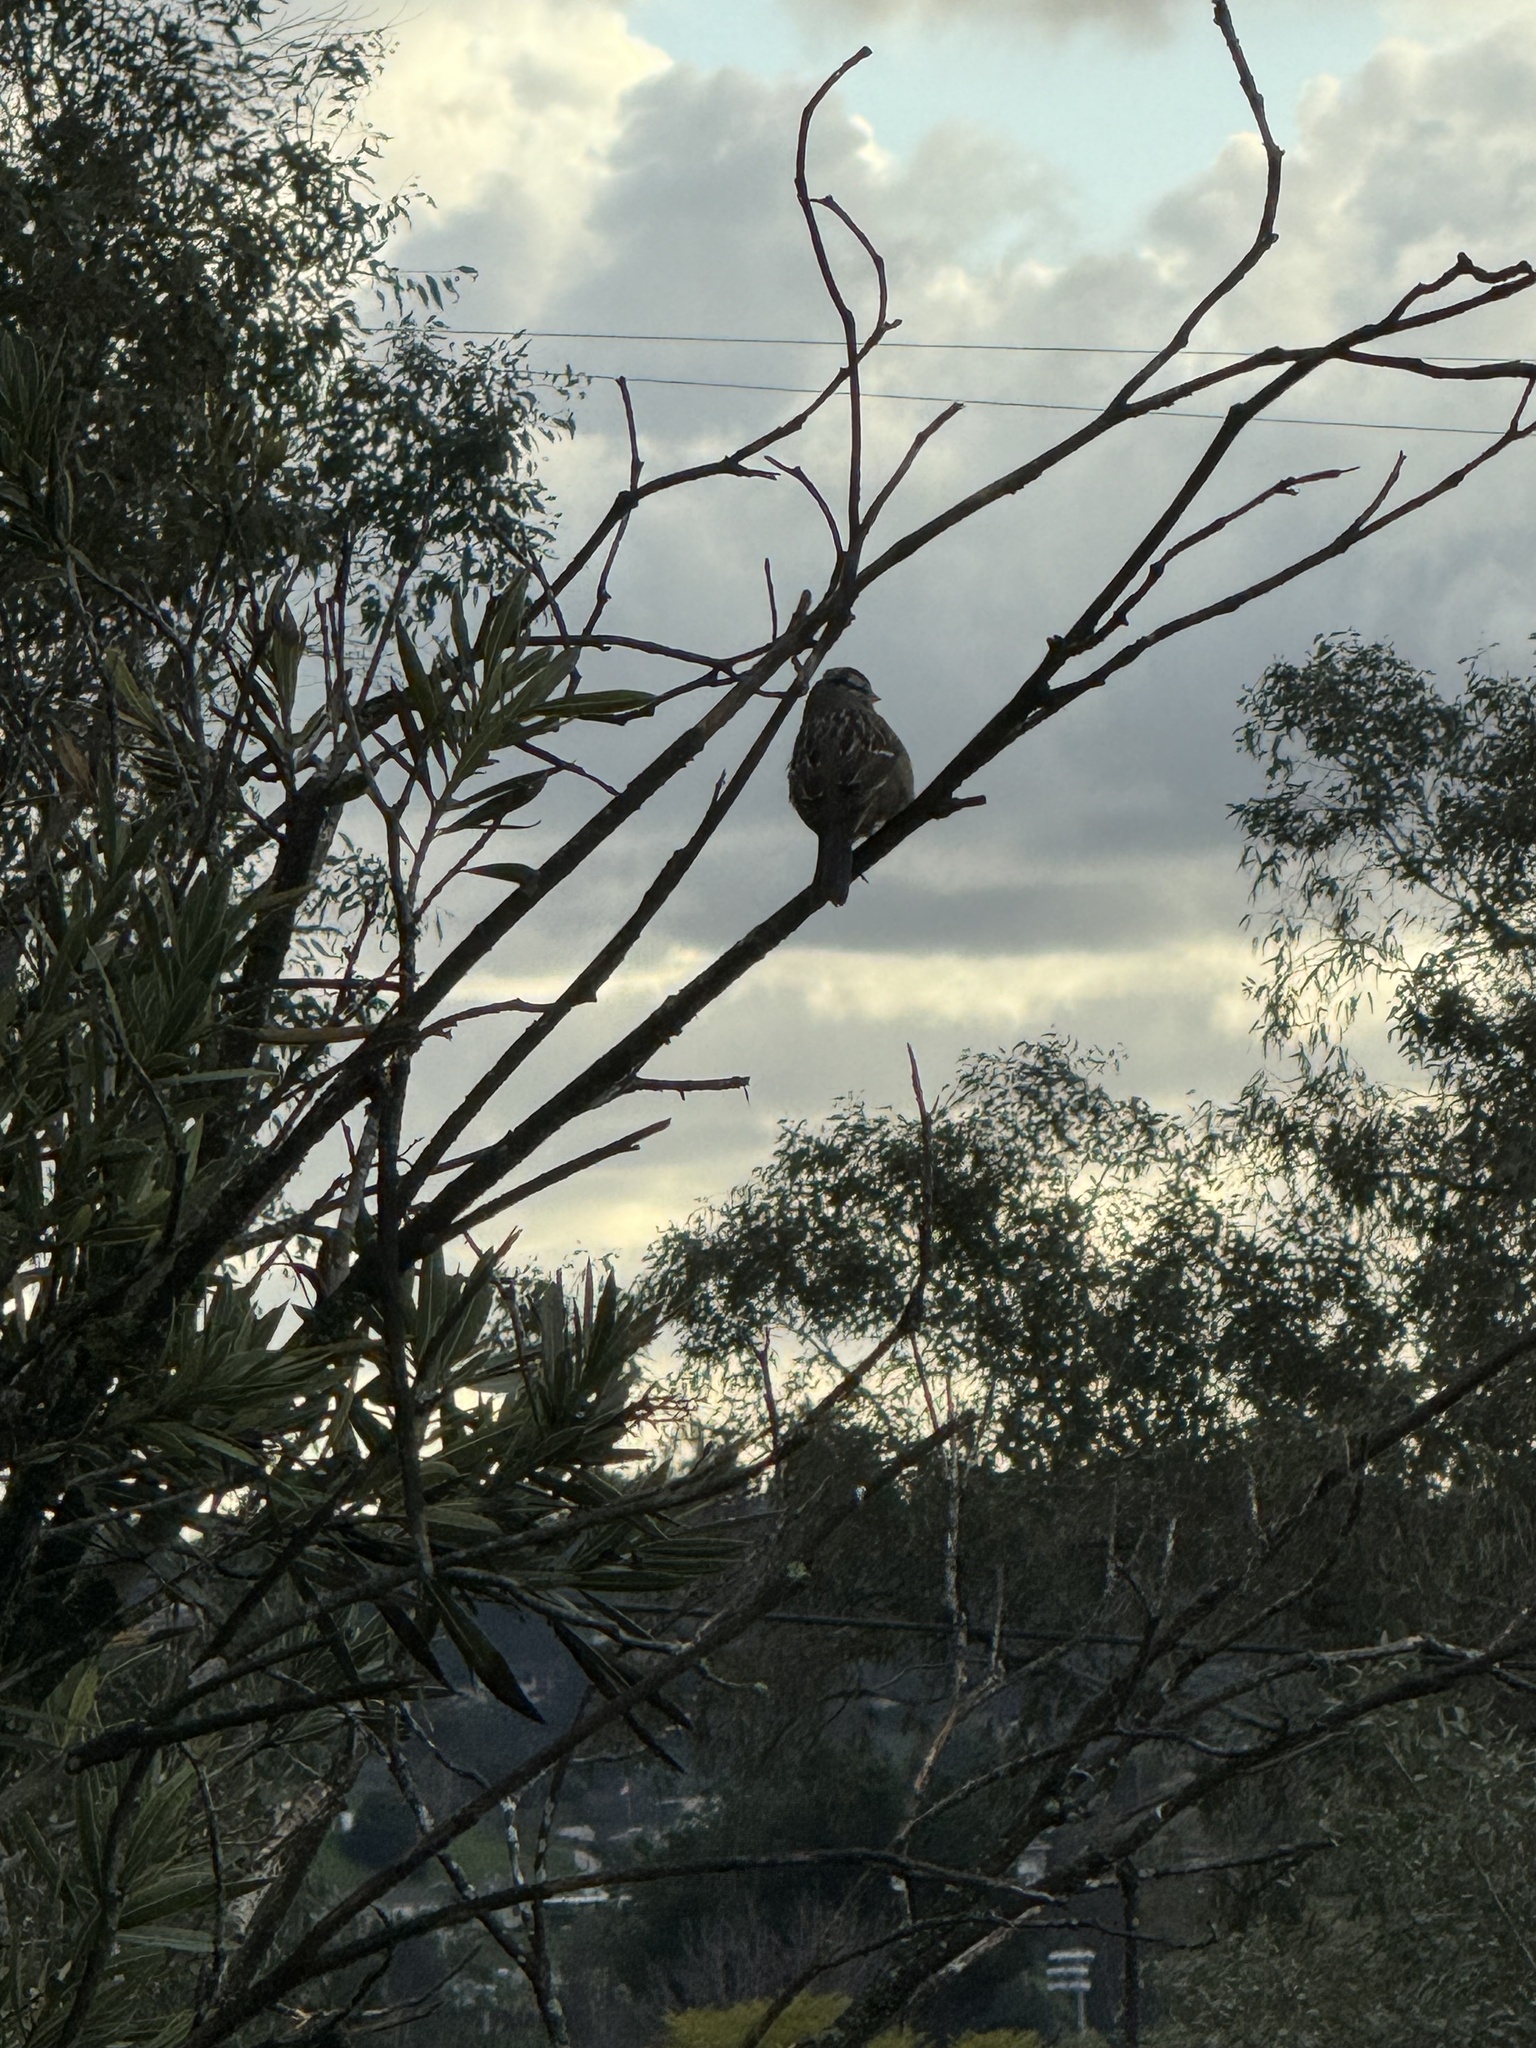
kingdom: Animalia
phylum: Chordata
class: Aves
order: Passeriformes
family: Passerellidae
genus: Zonotrichia
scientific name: Zonotrichia leucophrys
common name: White-crowned sparrow
